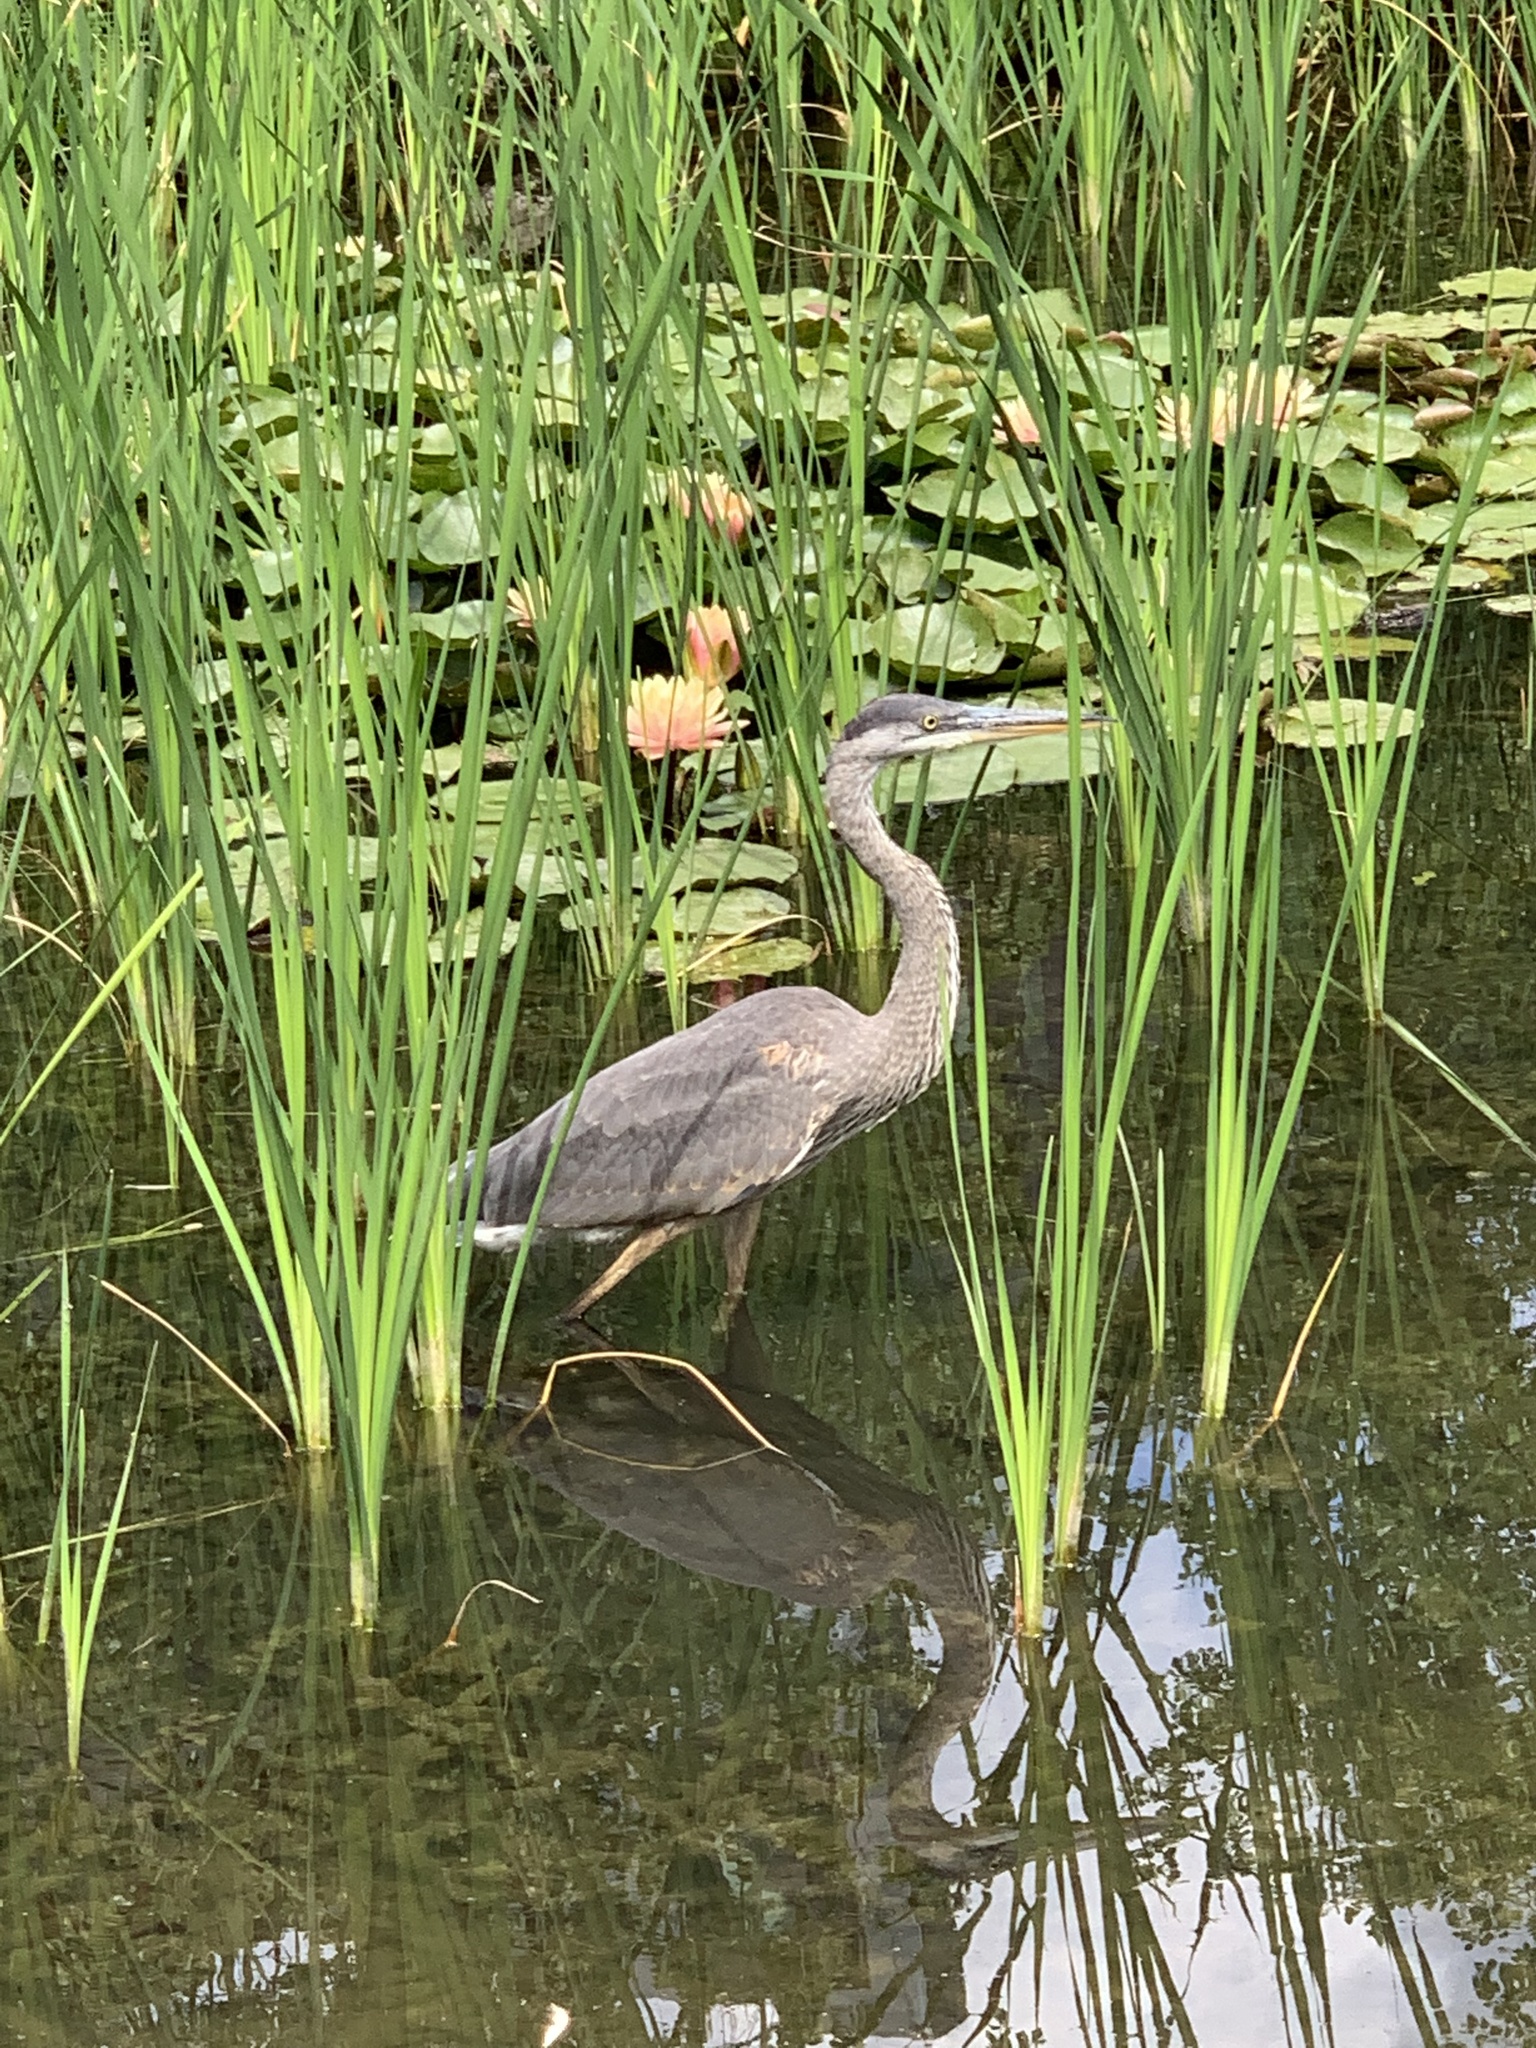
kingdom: Animalia
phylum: Chordata
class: Aves
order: Pelecaniformes
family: Ardeidae
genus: Ardea
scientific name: Ardea herodias
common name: Great blue heron
